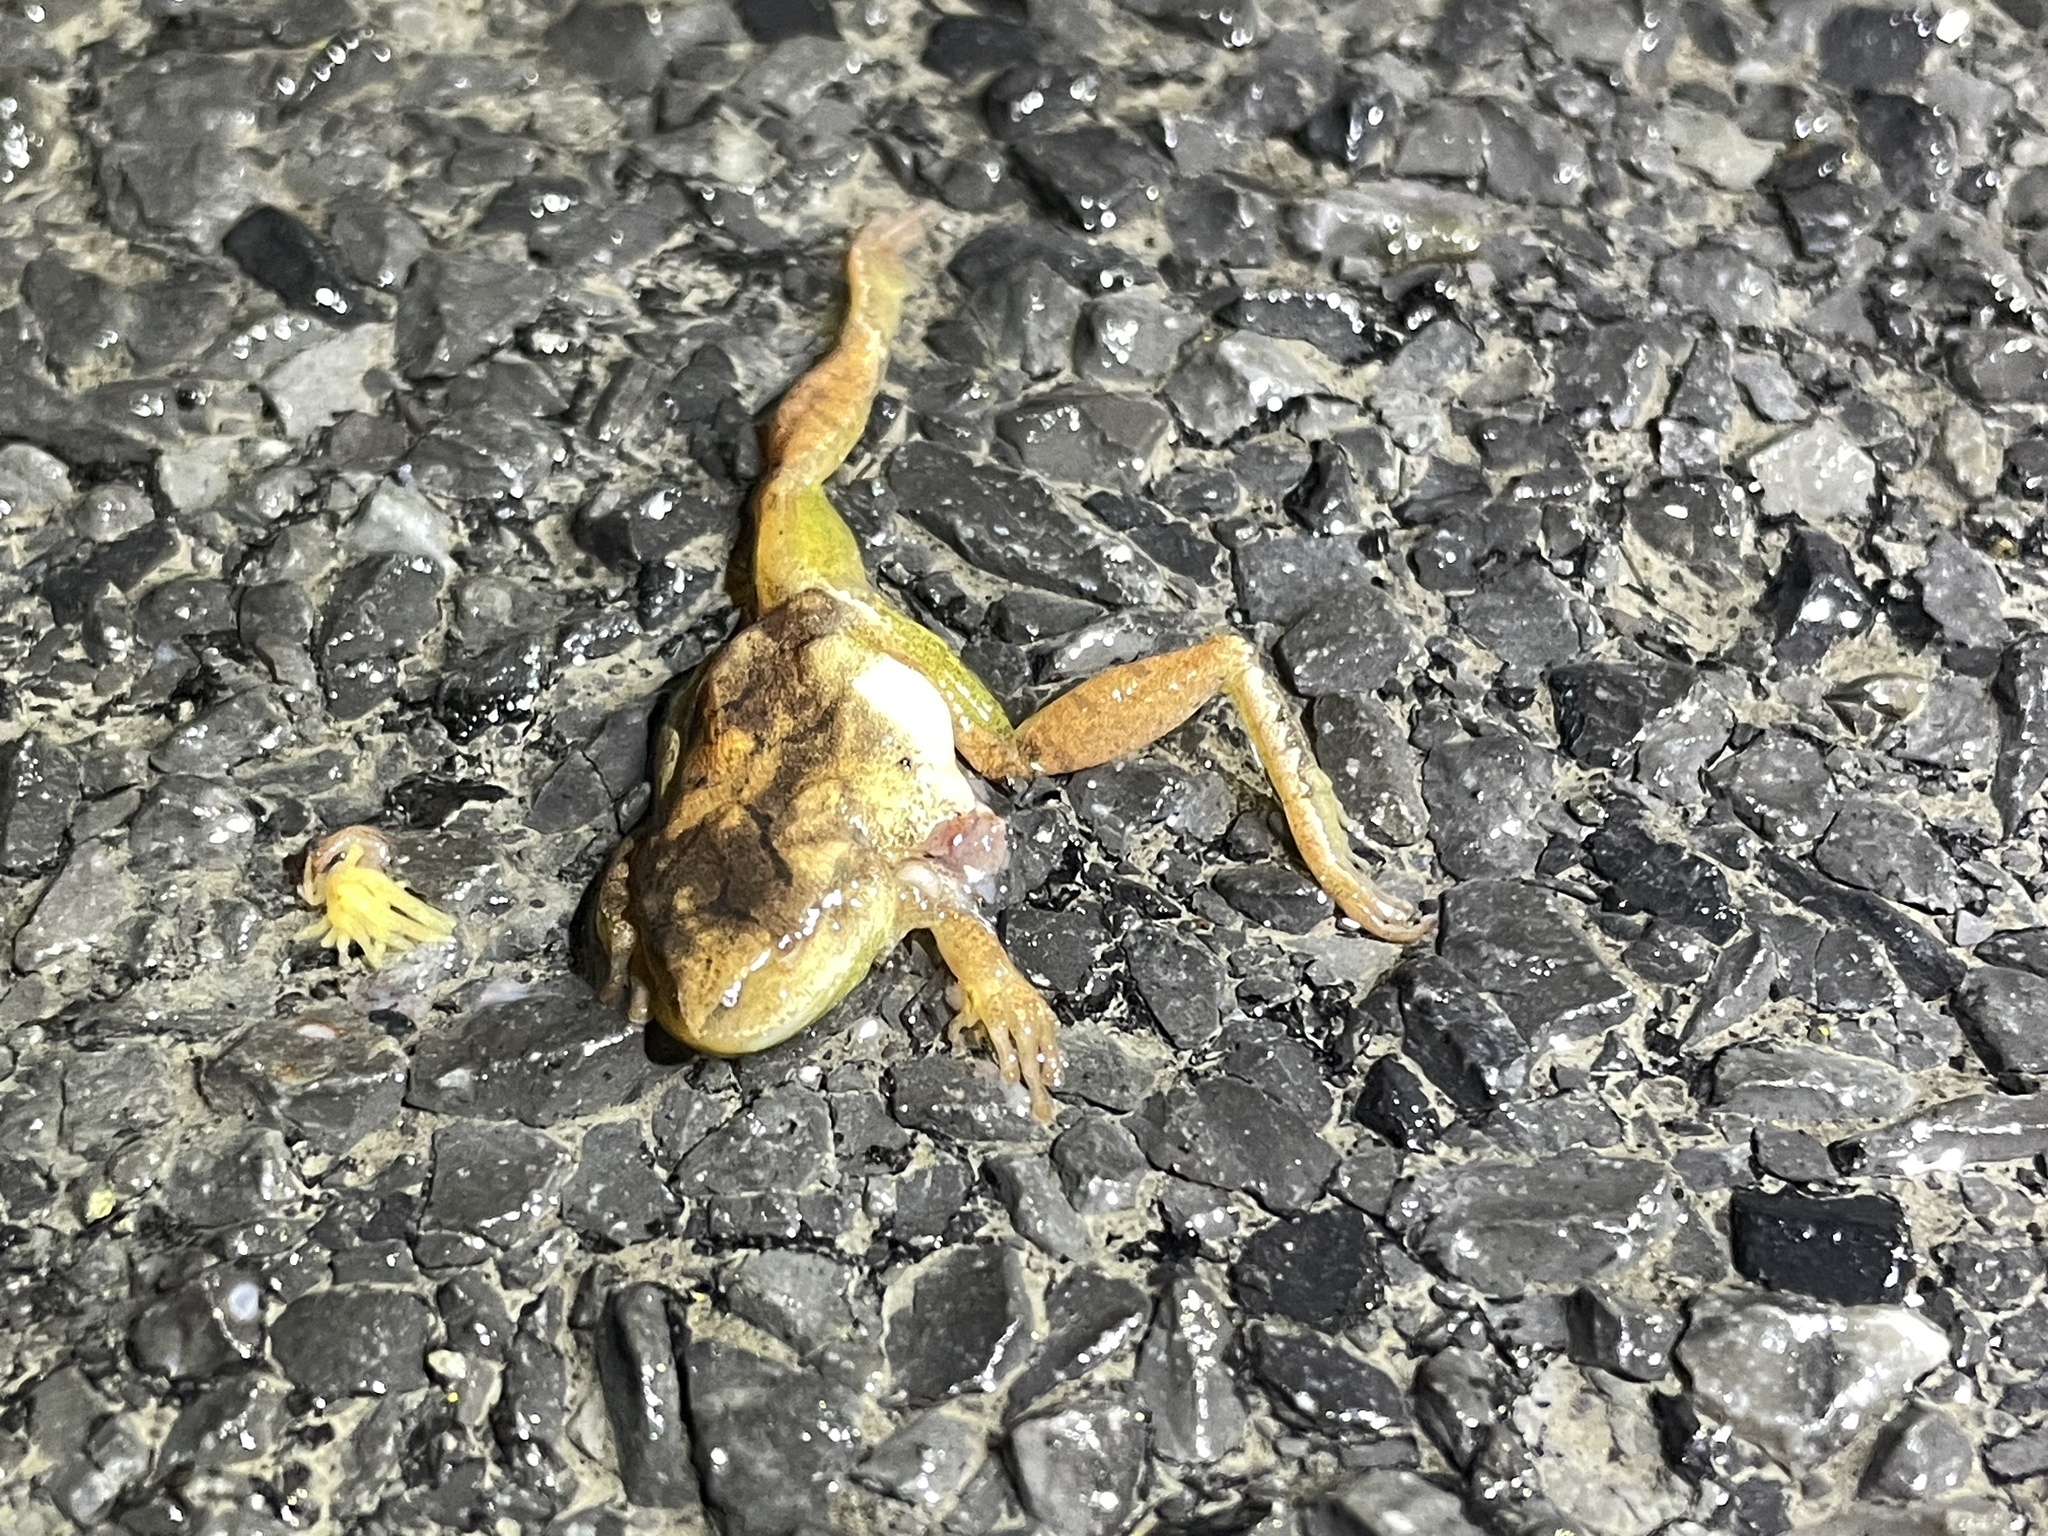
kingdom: Animalia
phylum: Chordata
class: Amphibia
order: Anura
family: Hylidae
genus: Pseudacris
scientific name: Pseudacris crucifer
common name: Spring peeper
